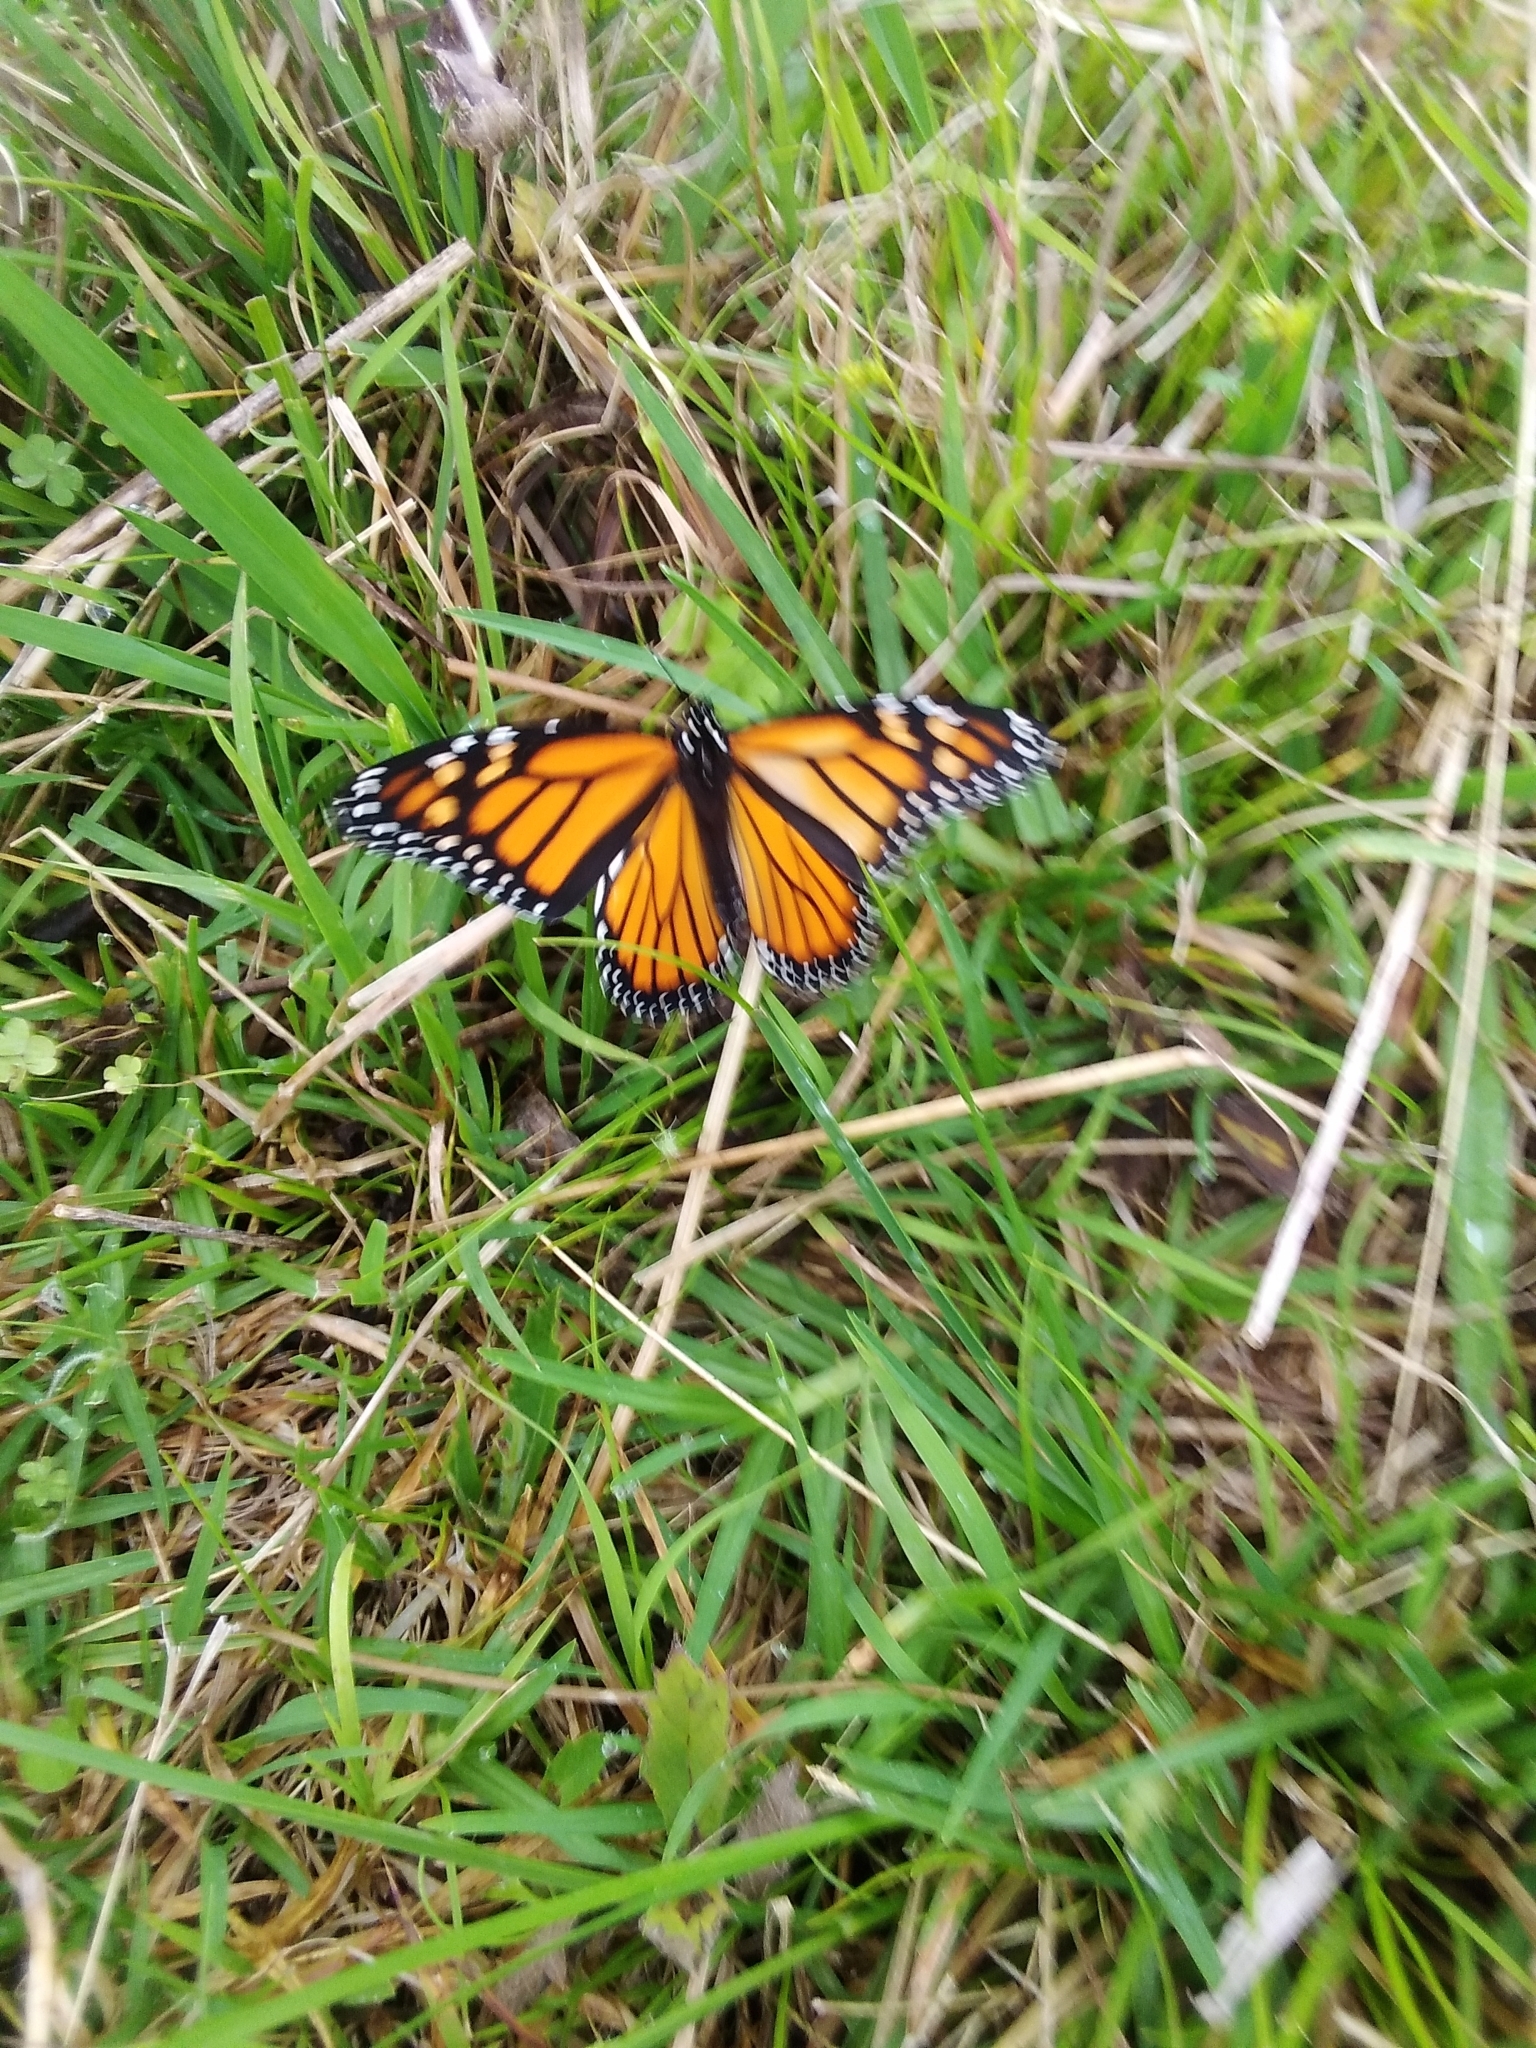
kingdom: Animalia
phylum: Arthropoda
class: Insecta
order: Lepidoptera
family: Nymphalidae
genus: Danaus
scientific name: Danaus plexippus
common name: Monarch
